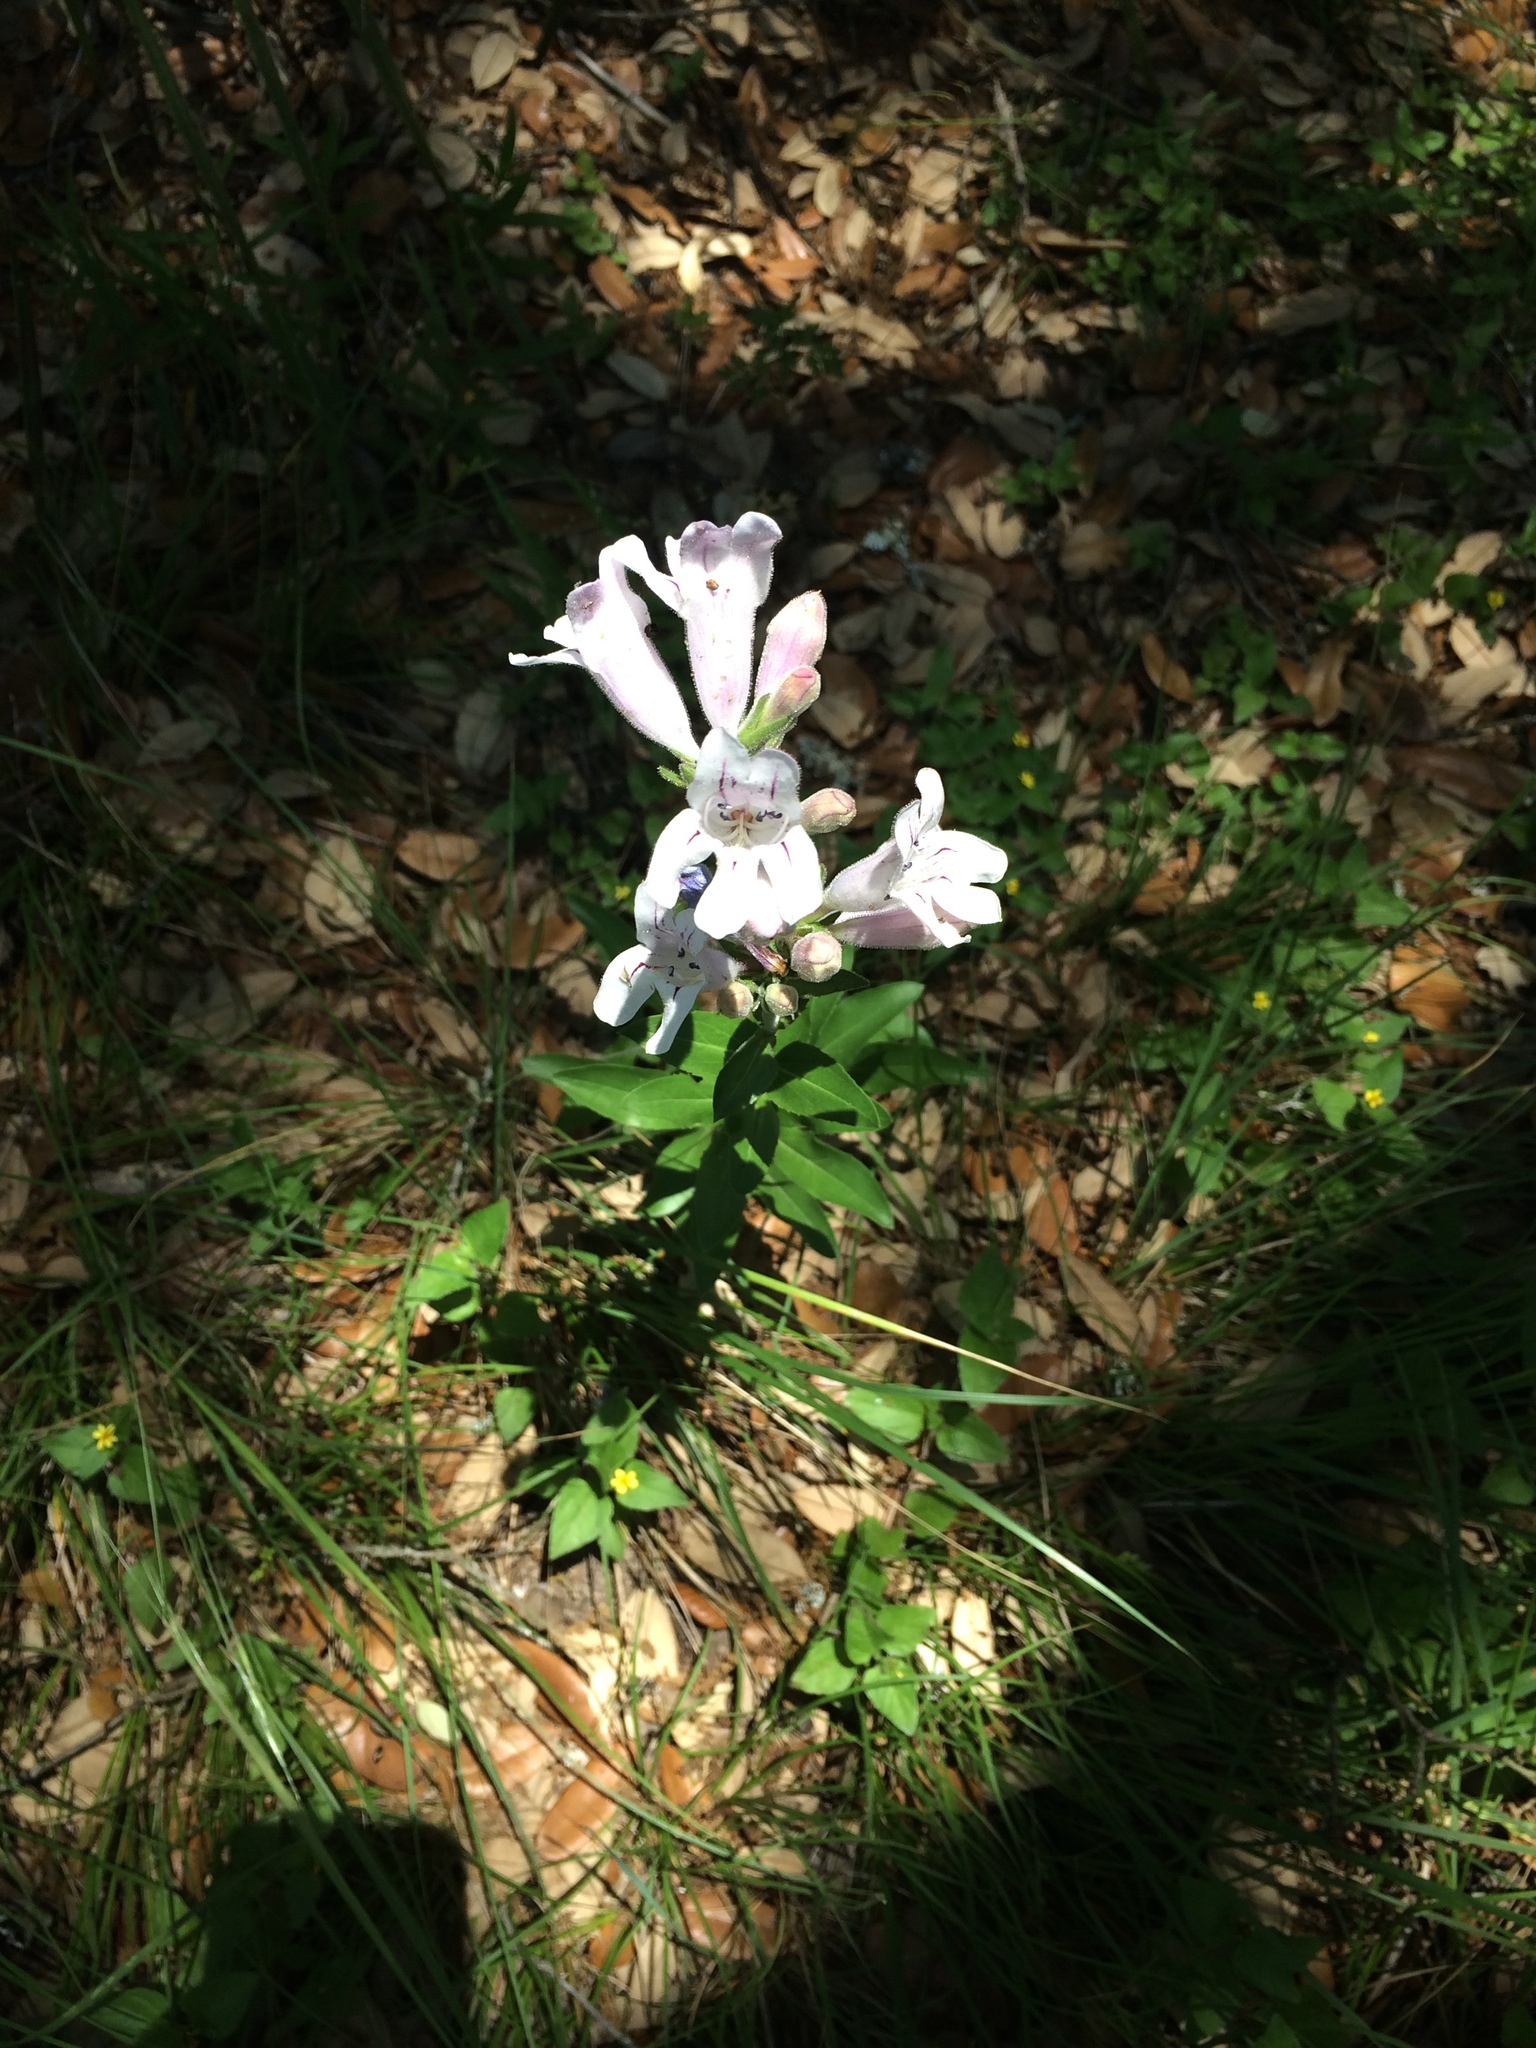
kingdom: Plantae
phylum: Tracheophyta
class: Magnoliopsida
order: Lamiales
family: Plantaginaceae
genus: Penstemon
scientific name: Penstemon cobaea
